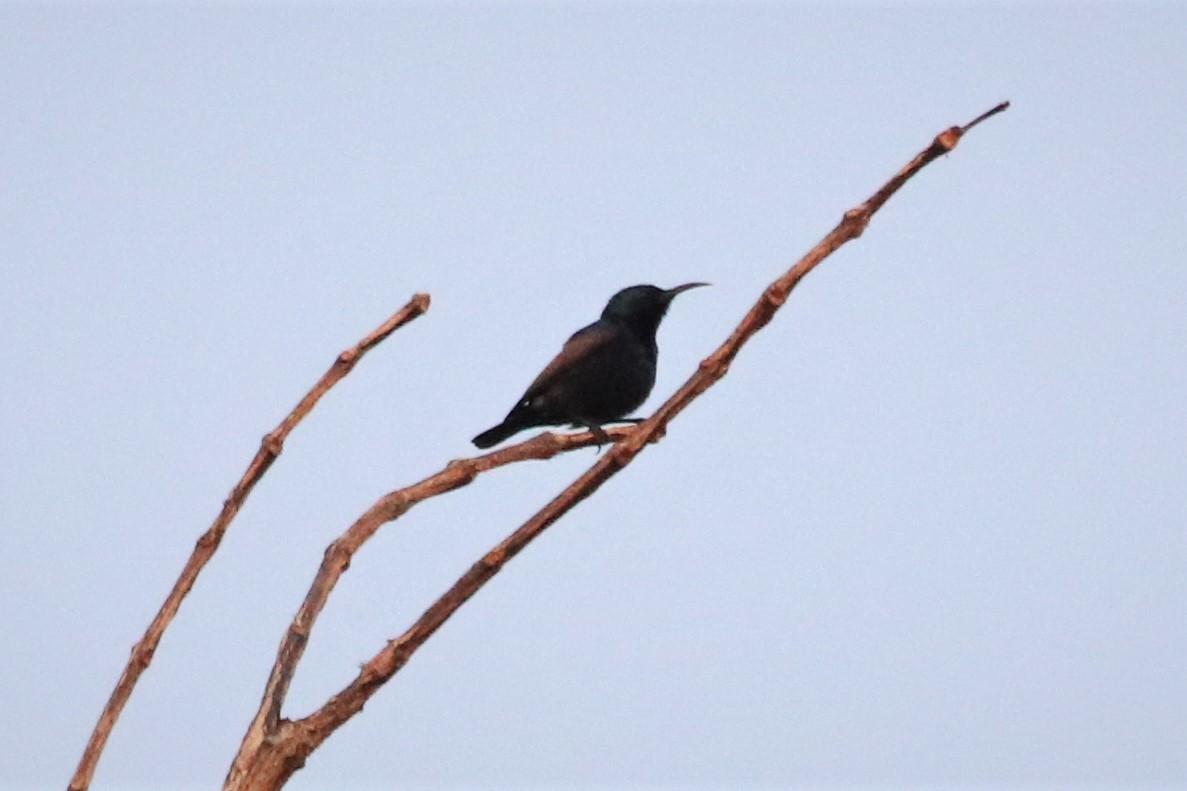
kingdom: Animalia
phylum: Chordata
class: Aves
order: Passeriformes
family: Nectariniidae
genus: Cinnyris
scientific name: Cinnyris asiaticus
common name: Purple sunbird
